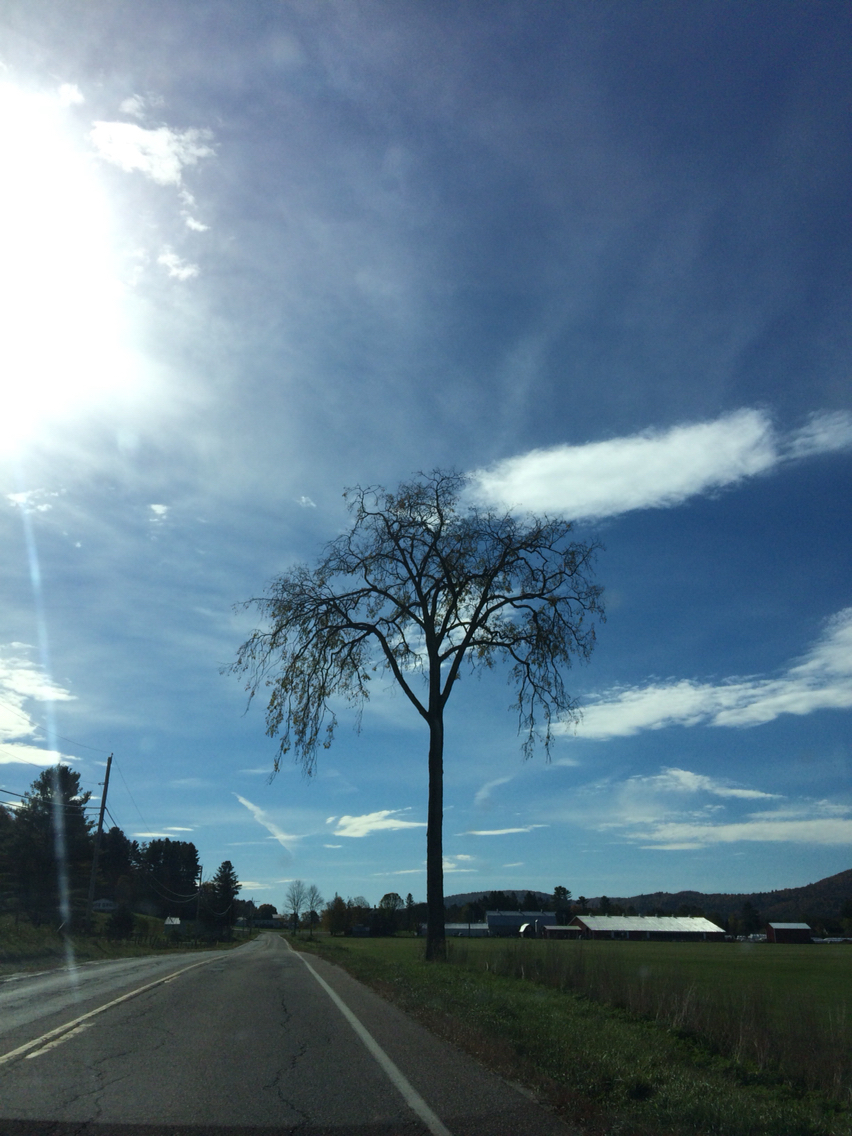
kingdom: Plantae
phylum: Tracheophyta
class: Magnoliopsida
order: Rosales
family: Ulmaceae
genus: Ulmus
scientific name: Ulmus americana
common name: American elm
